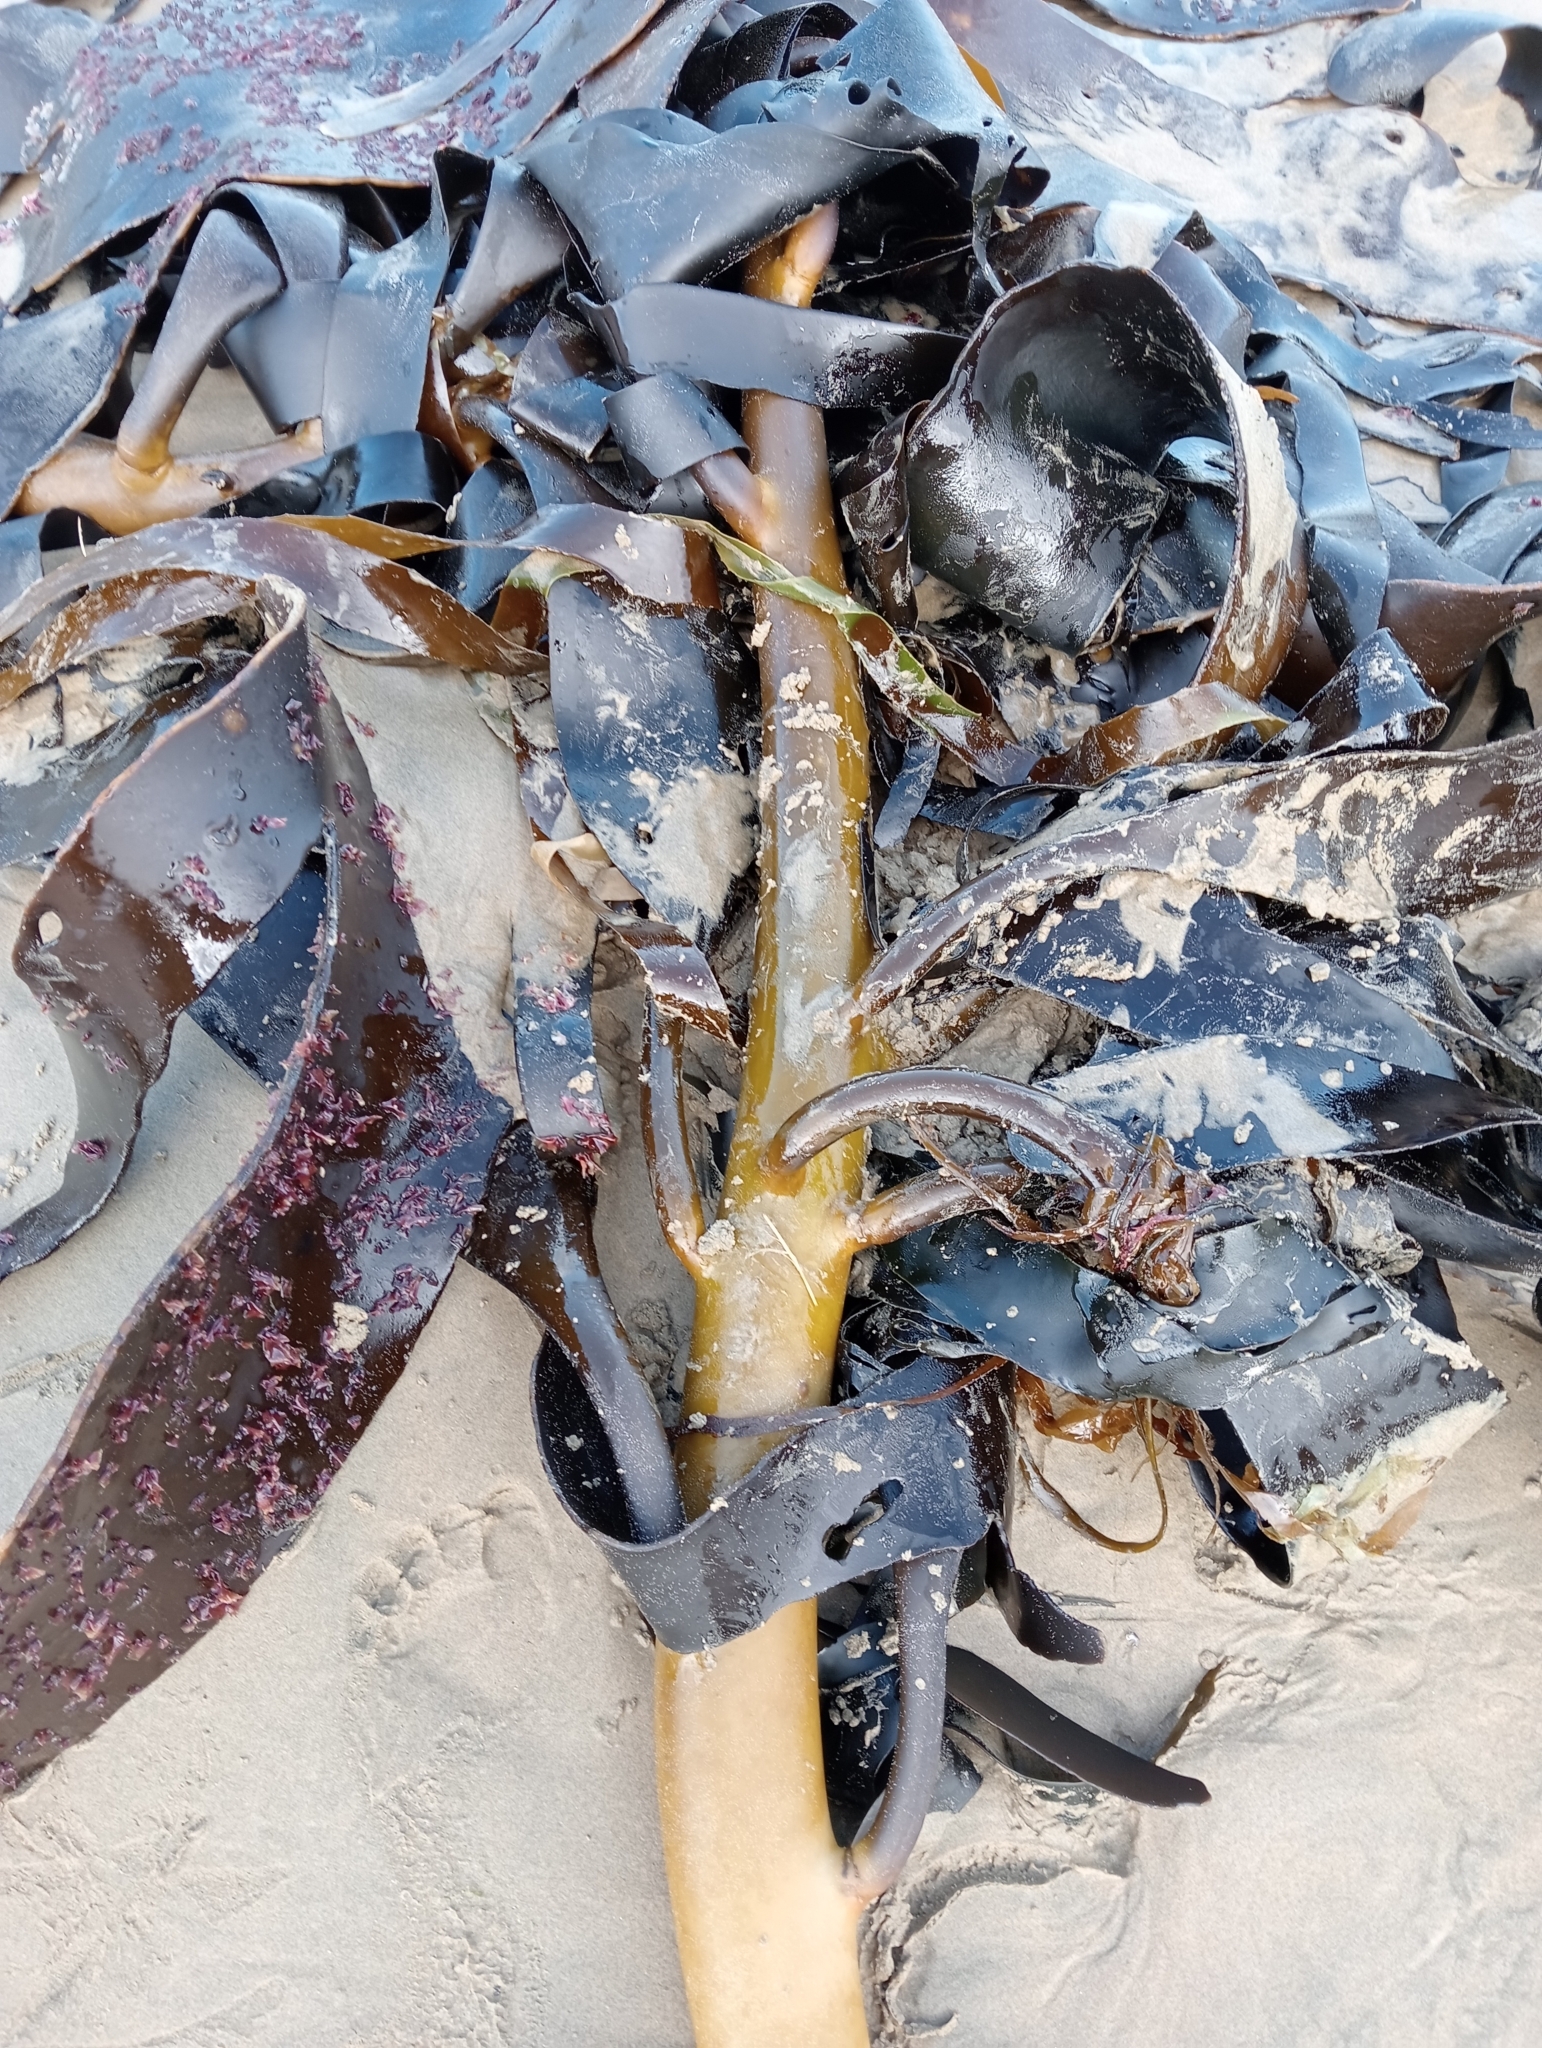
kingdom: Chromista
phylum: Ochrophyta
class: Phaeophyceae
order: Fucales
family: Durvillaeaceae
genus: Durvillaea
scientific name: Durvillaea willana
